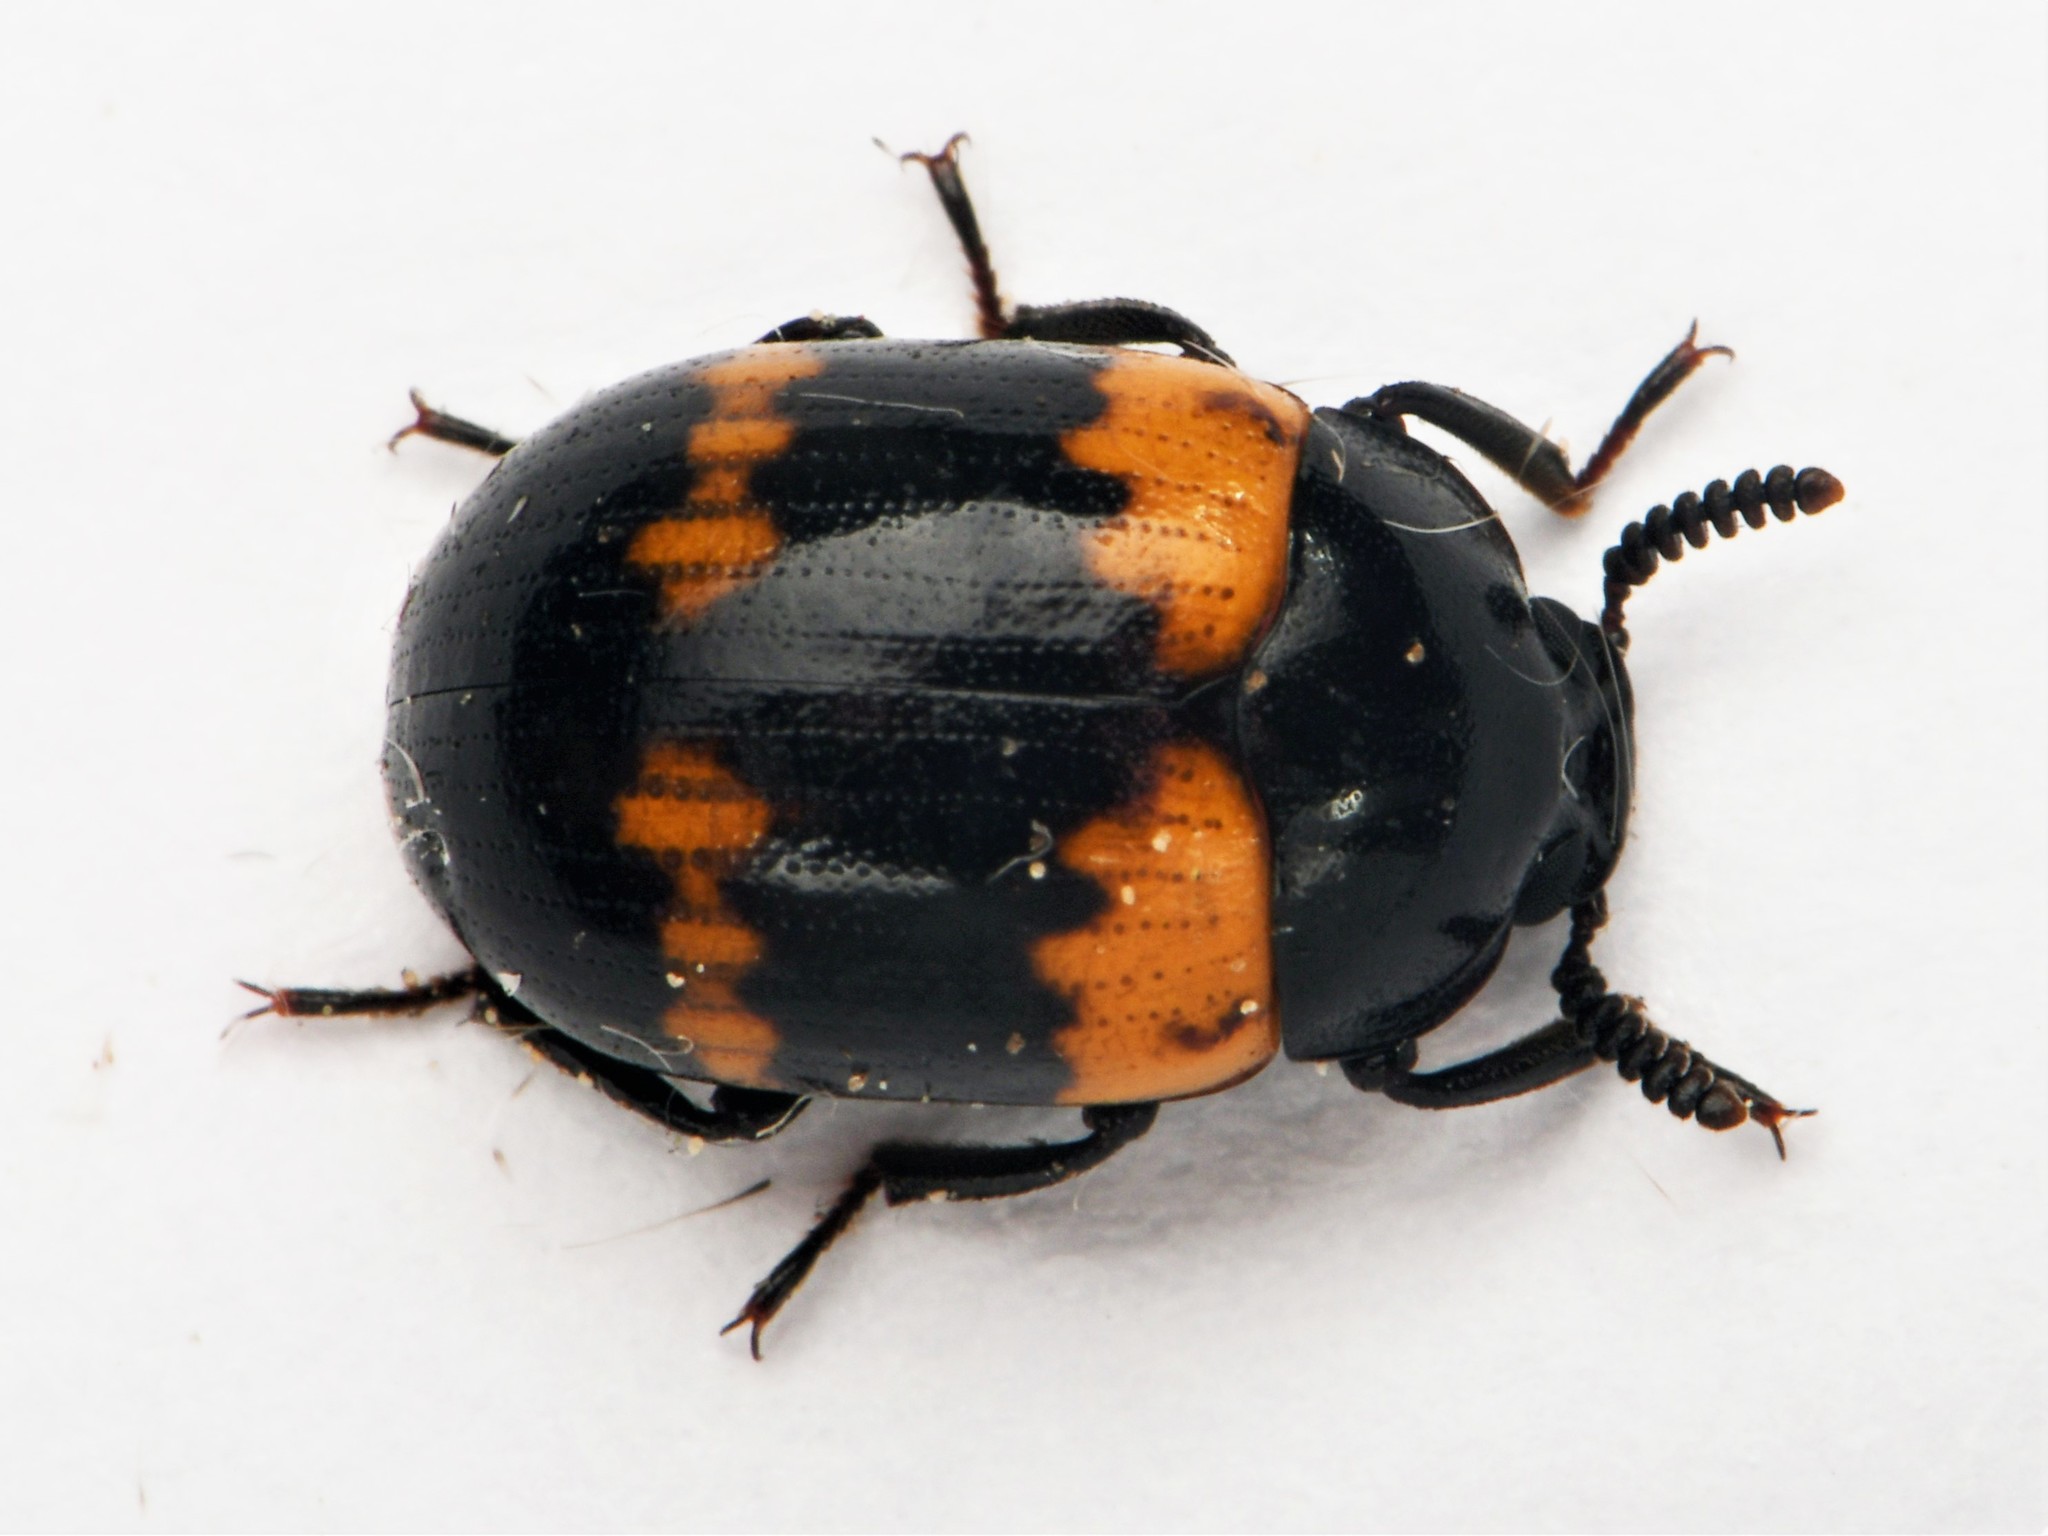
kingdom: Animalia
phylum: Arthropoda
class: Insecta
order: Coleoptera
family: Tenebrionidae
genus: Diaperis
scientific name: Diaperis boleti
